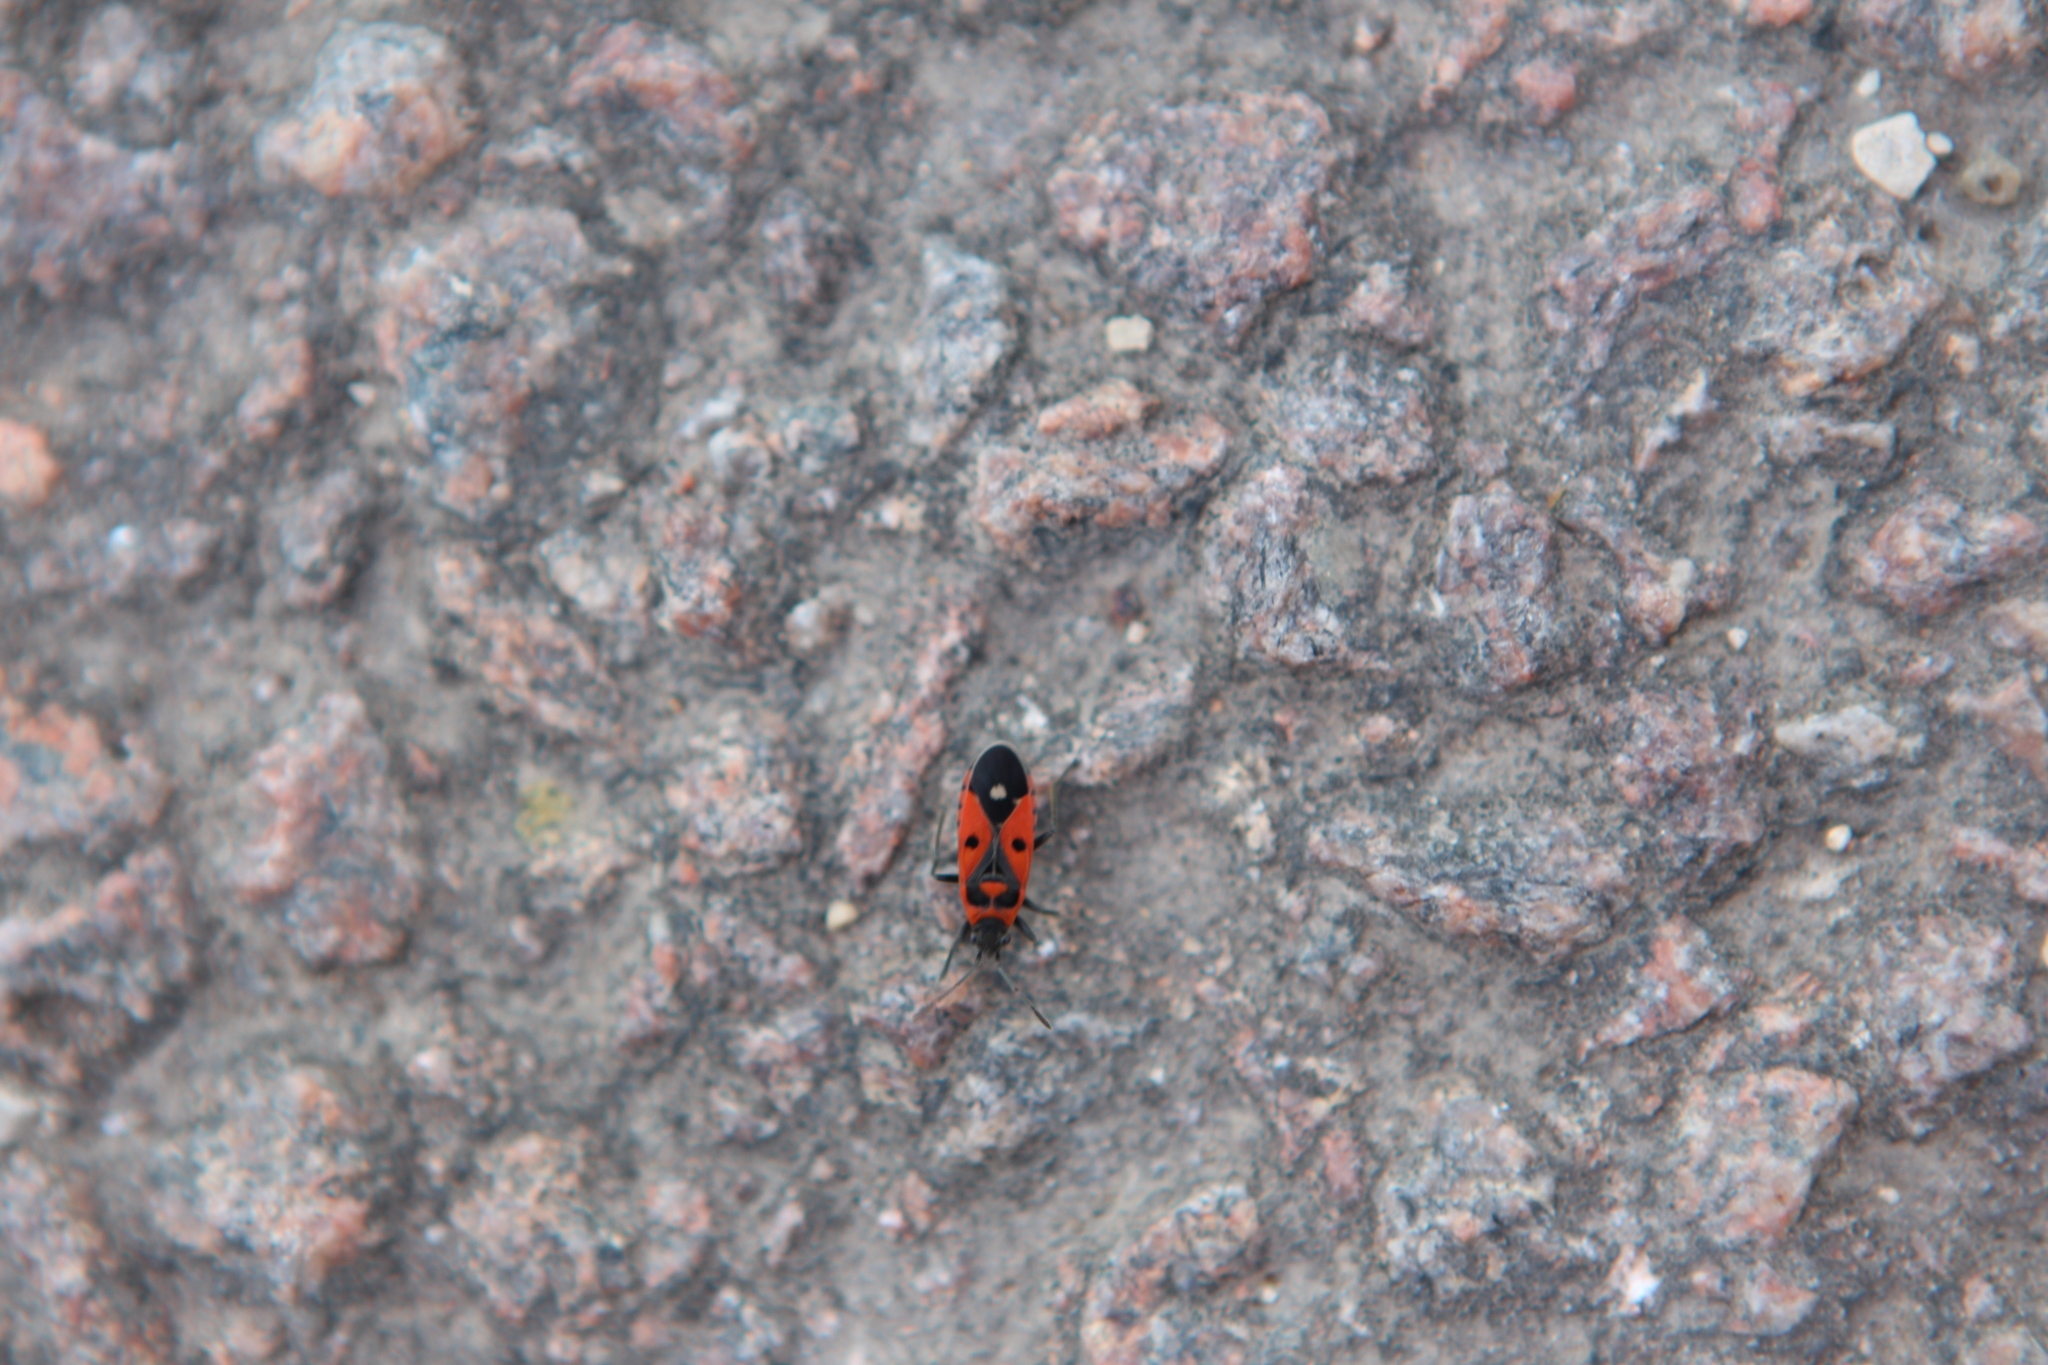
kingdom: Animalia
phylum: Arthropoda
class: Insecta
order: Hemiptera
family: Lygaeidae
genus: Melanocoryphus
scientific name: Melanocoryphus albomaculatus
